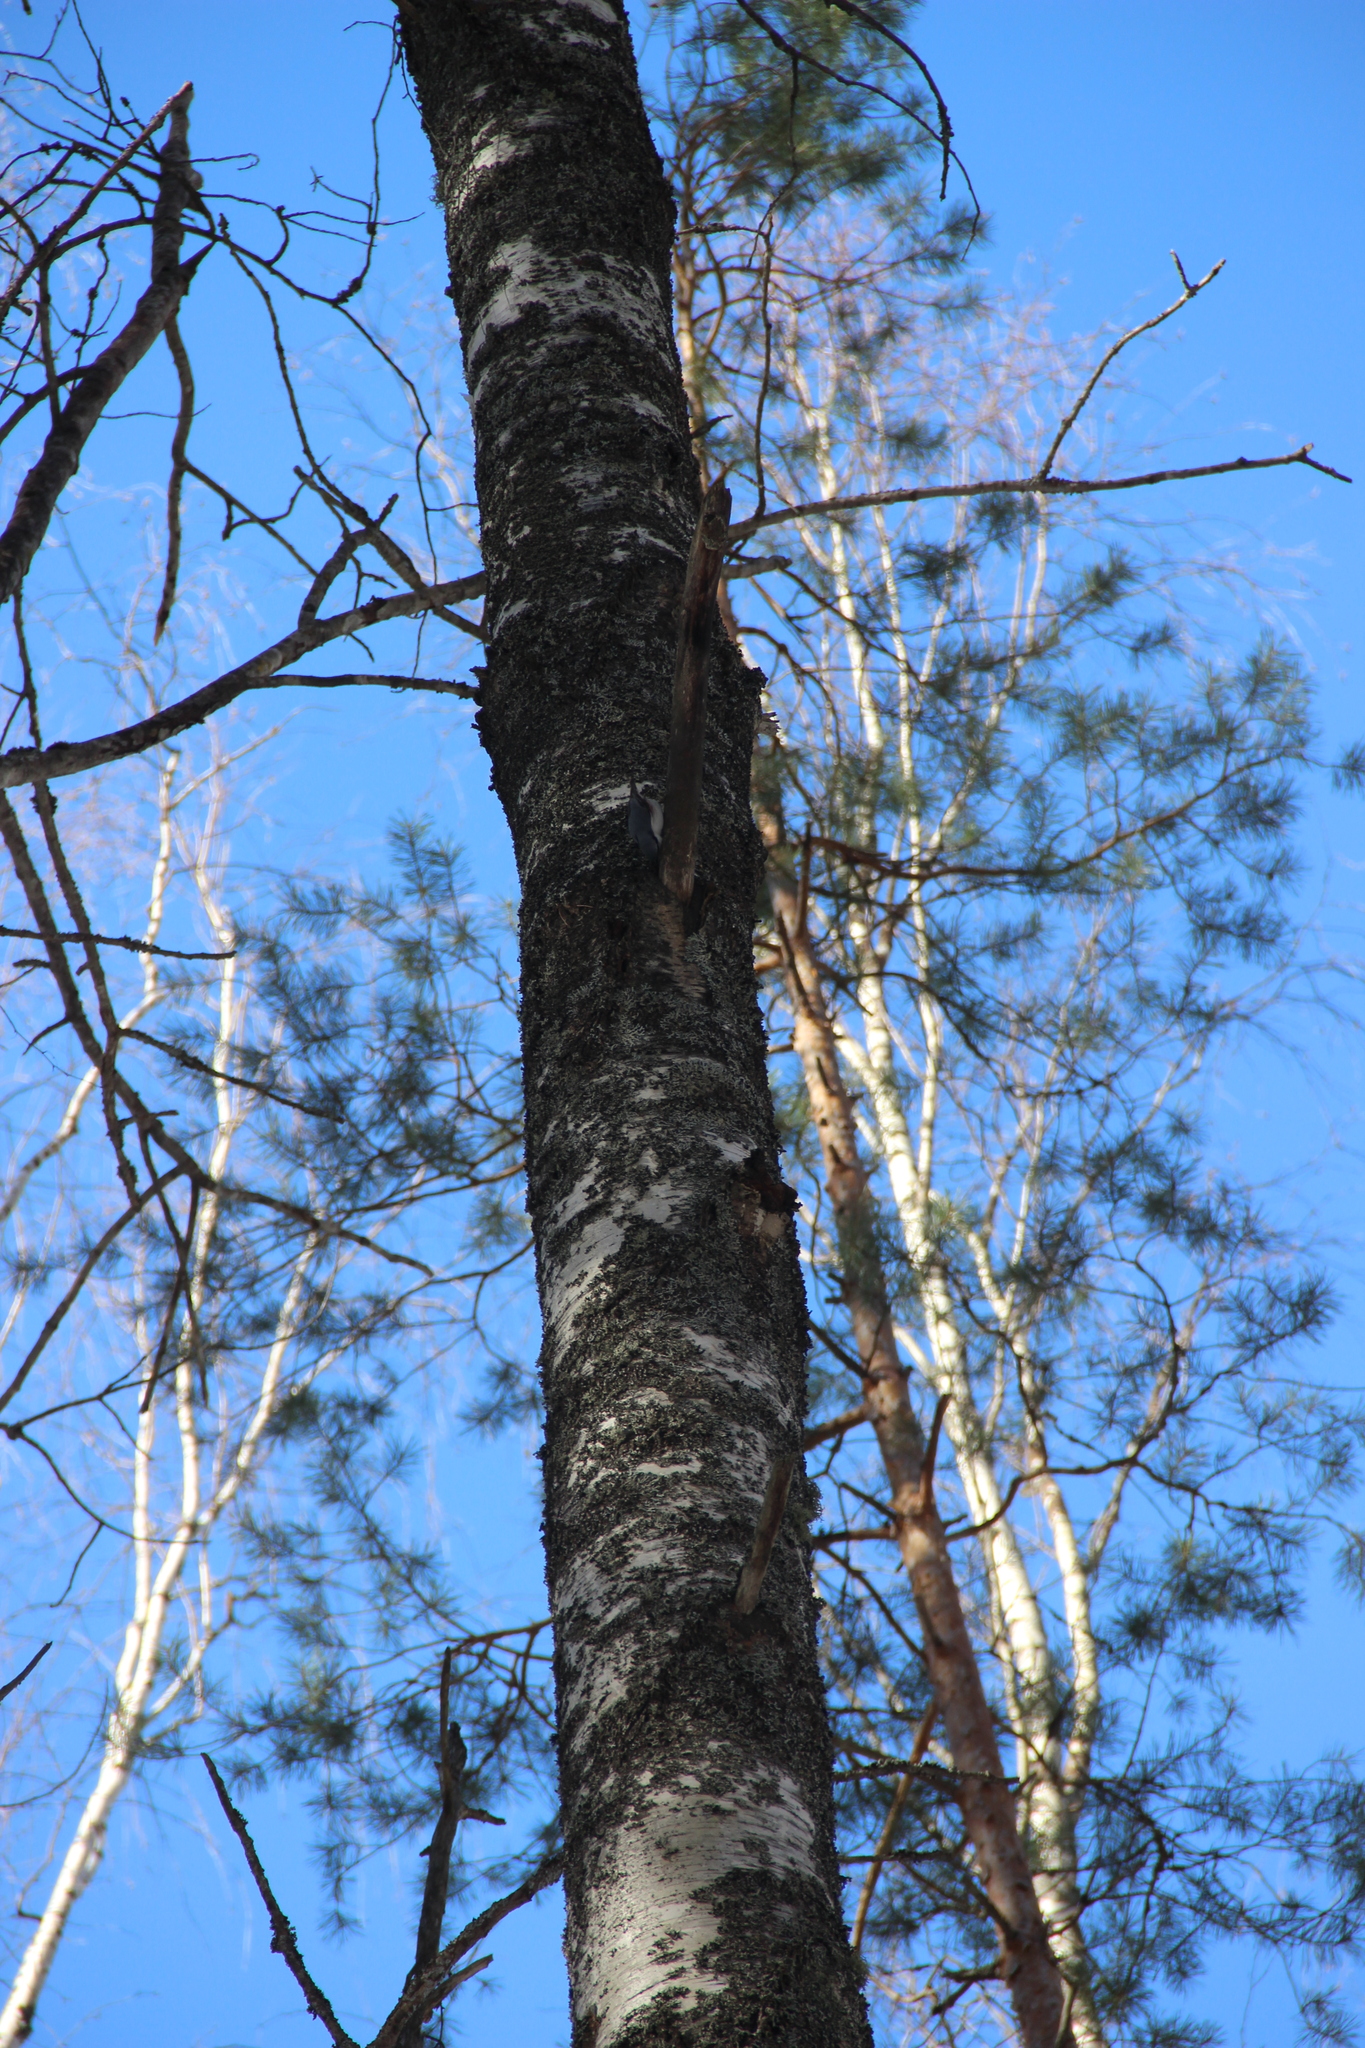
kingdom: Animalia
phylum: Chordata
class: Aves
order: Passeriformes
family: Sittidae
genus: Sitta
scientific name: Sitta europaea
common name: Eurasian nuthatch
